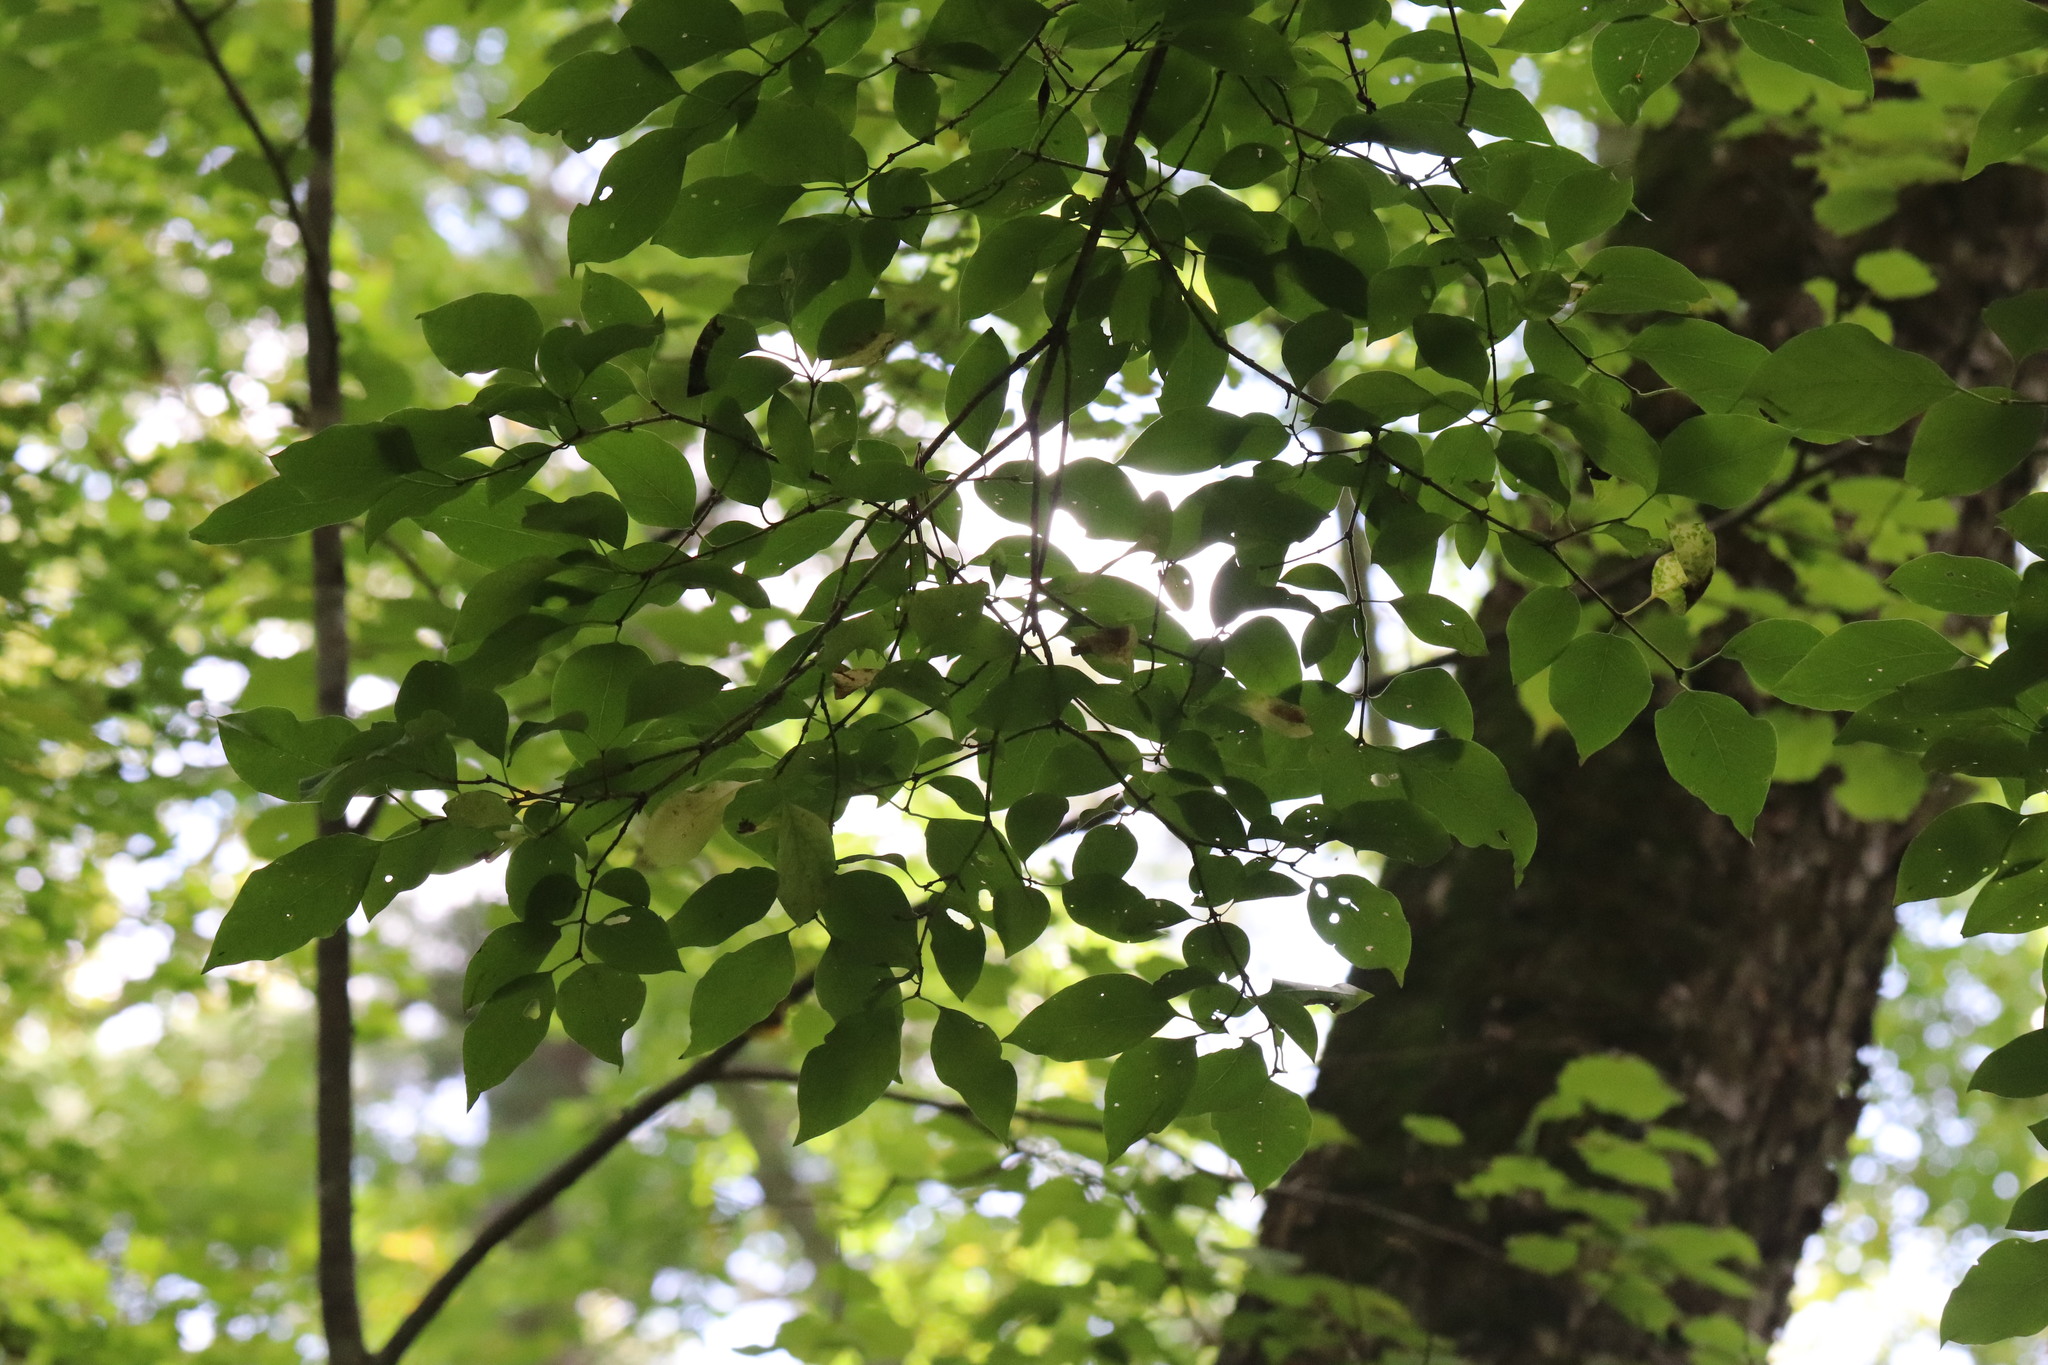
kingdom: Plantae
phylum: Tracheophyta
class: Magnoliopsida
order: Lamiales
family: Oleaceae
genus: Syringa
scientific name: Syringa reticulata
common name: Japanese tree lilac
